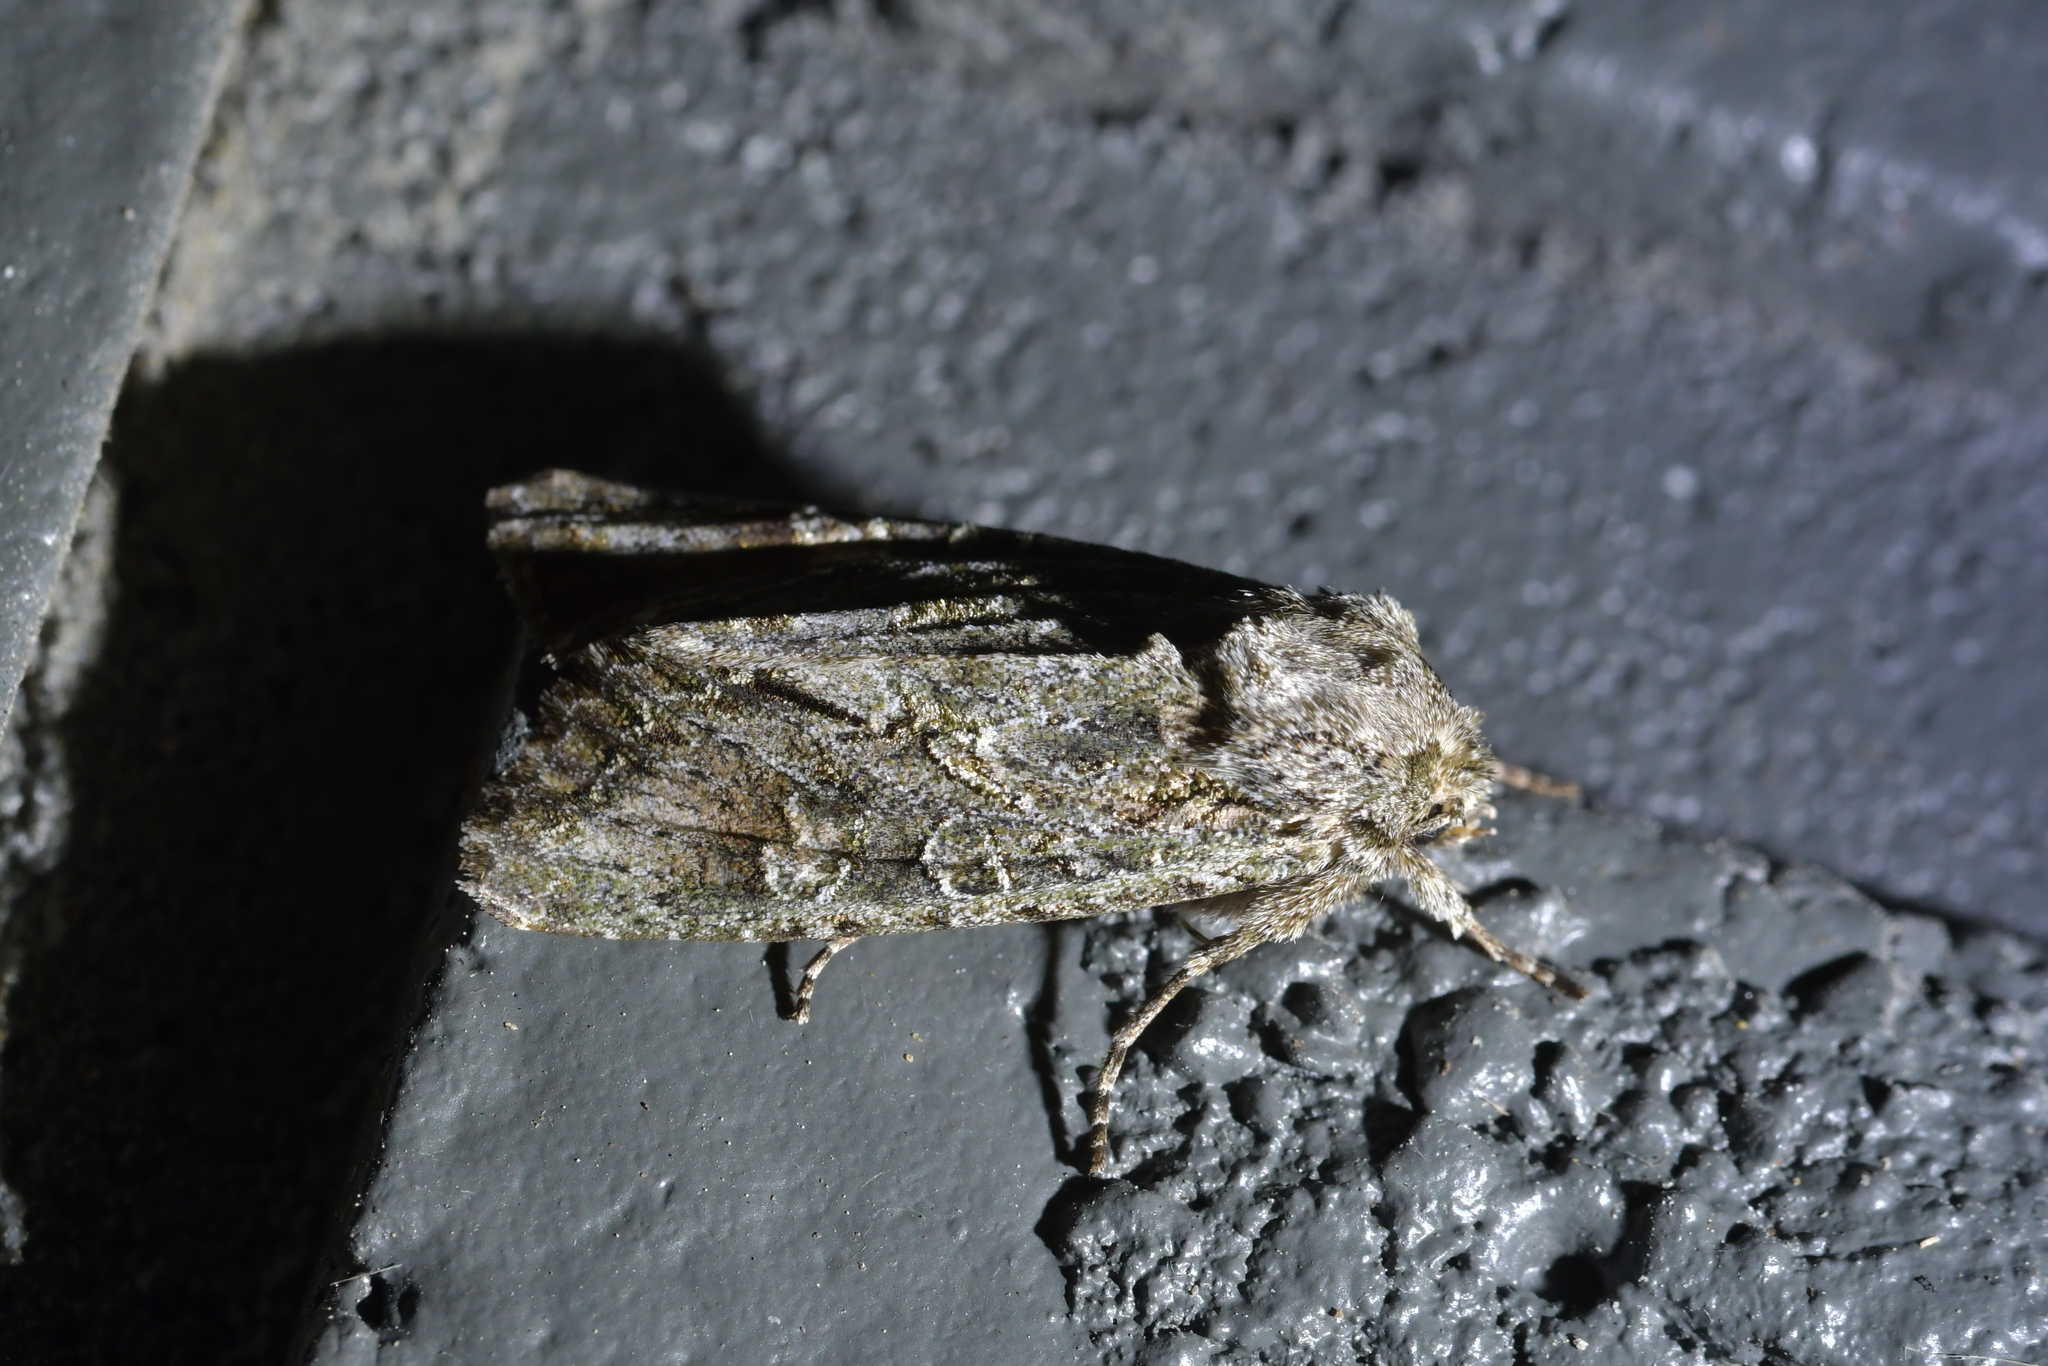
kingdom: Animalia
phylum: Arthropoda
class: Insecta
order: Lepidoptera
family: Noctuidae
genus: Ichneutica
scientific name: Ichneutica mutans
